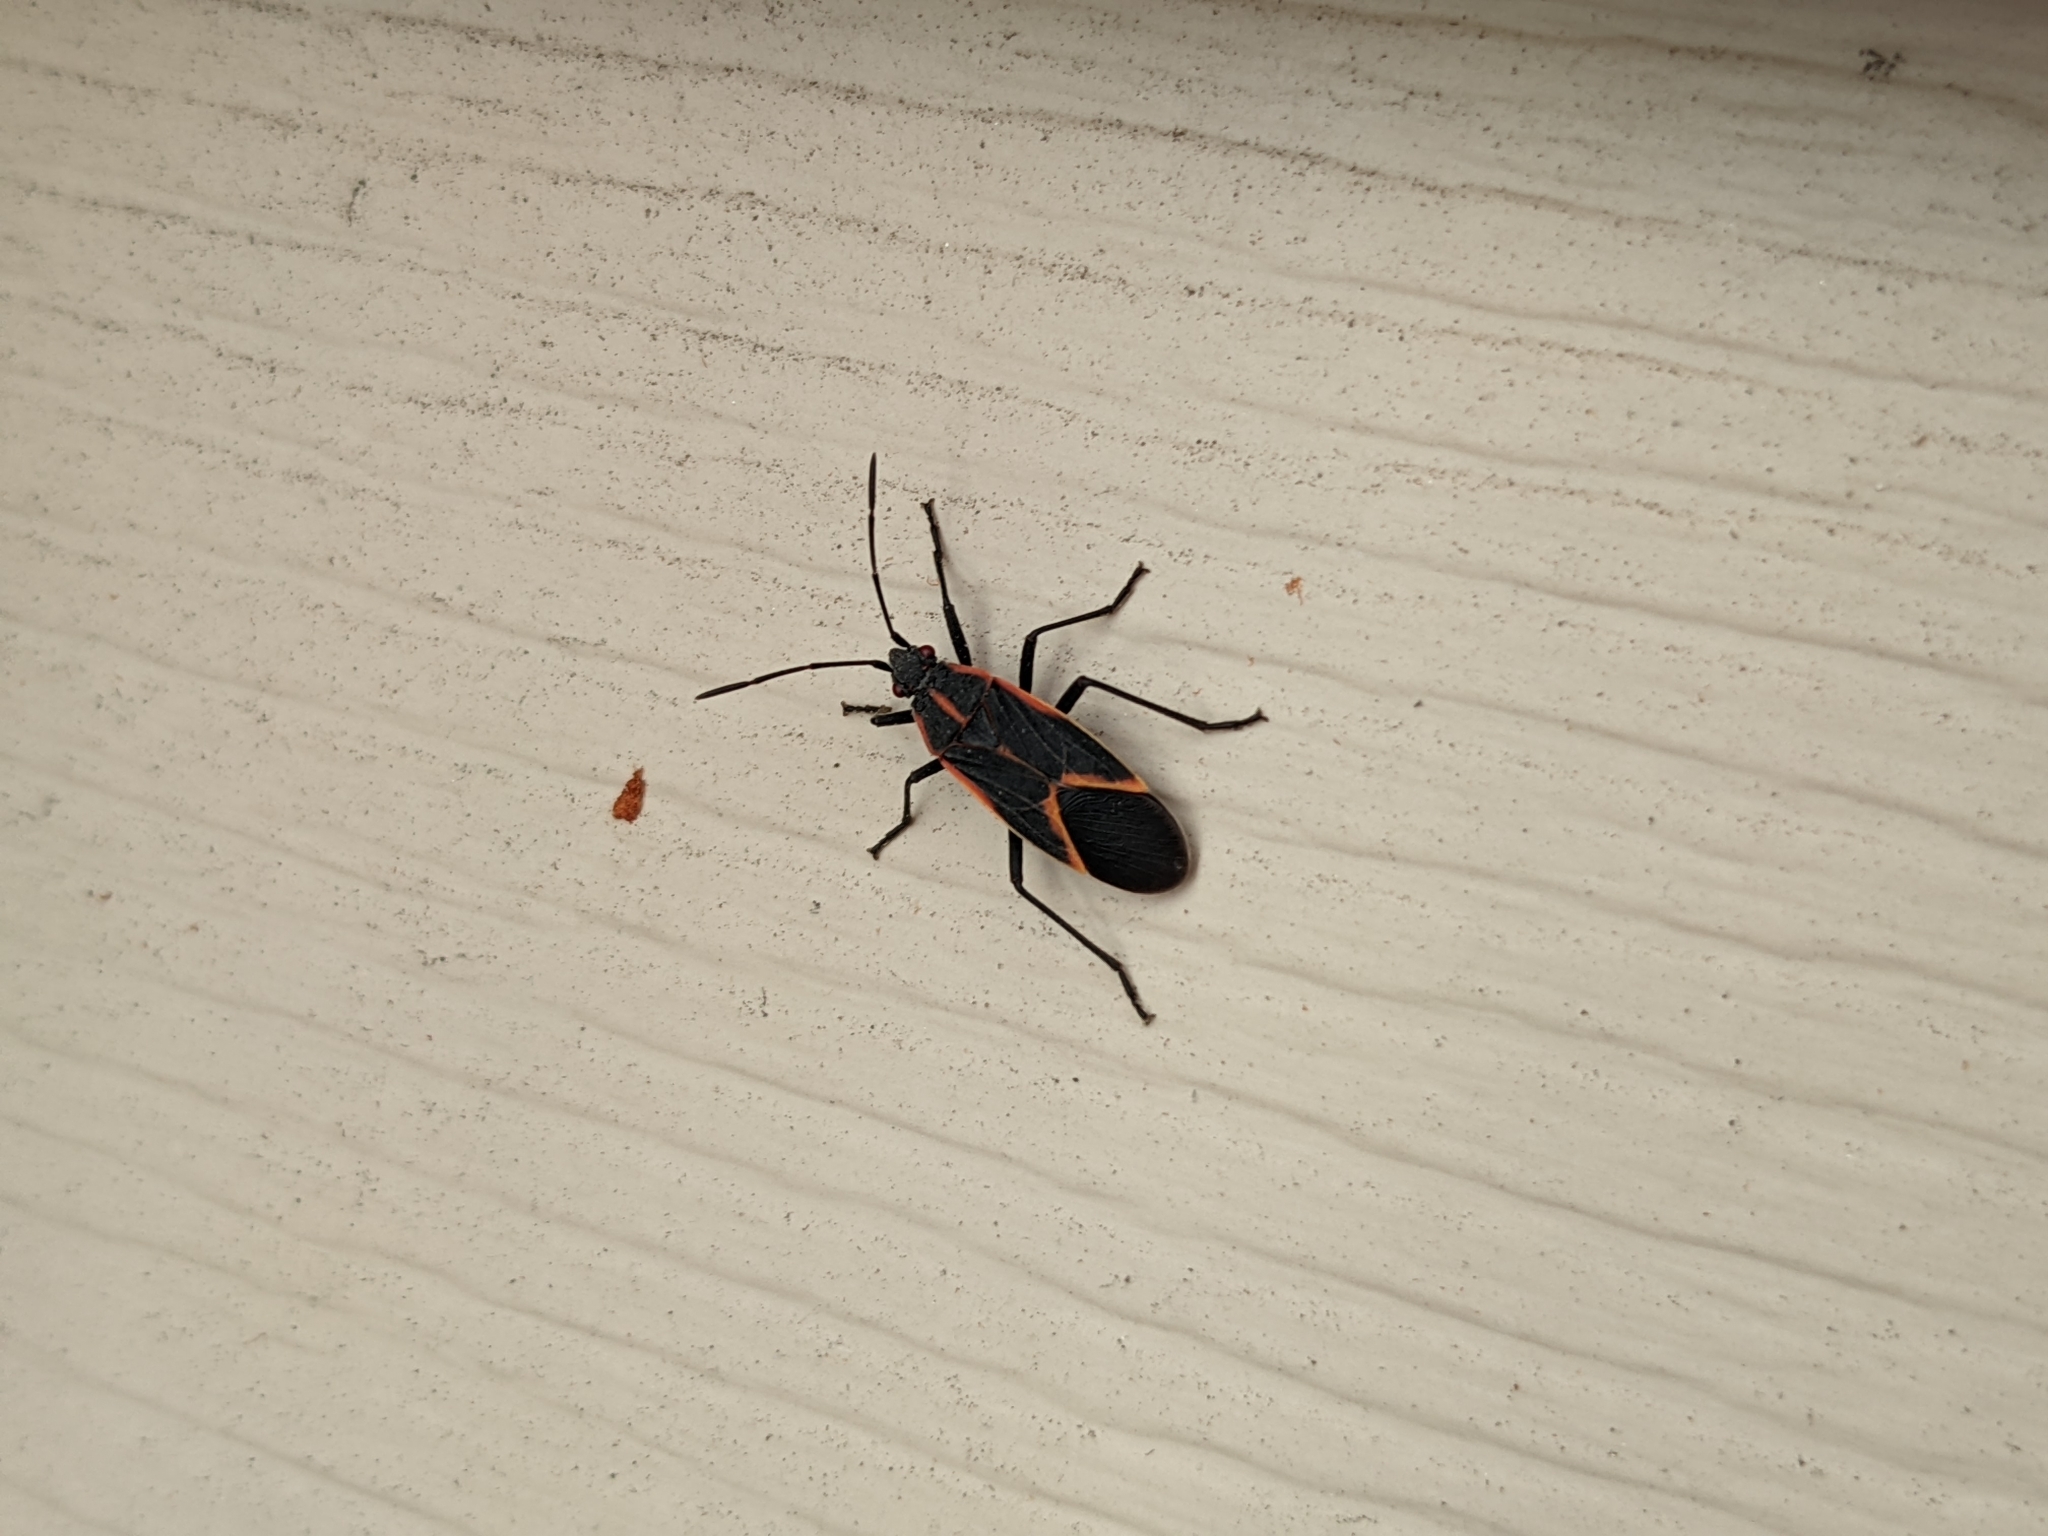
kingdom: Animalia
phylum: Arthropoda
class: Insecta
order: Hemiptera
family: Rhopalidae
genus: Boisea
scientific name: Boisea trivittata
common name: Boxelder bug
